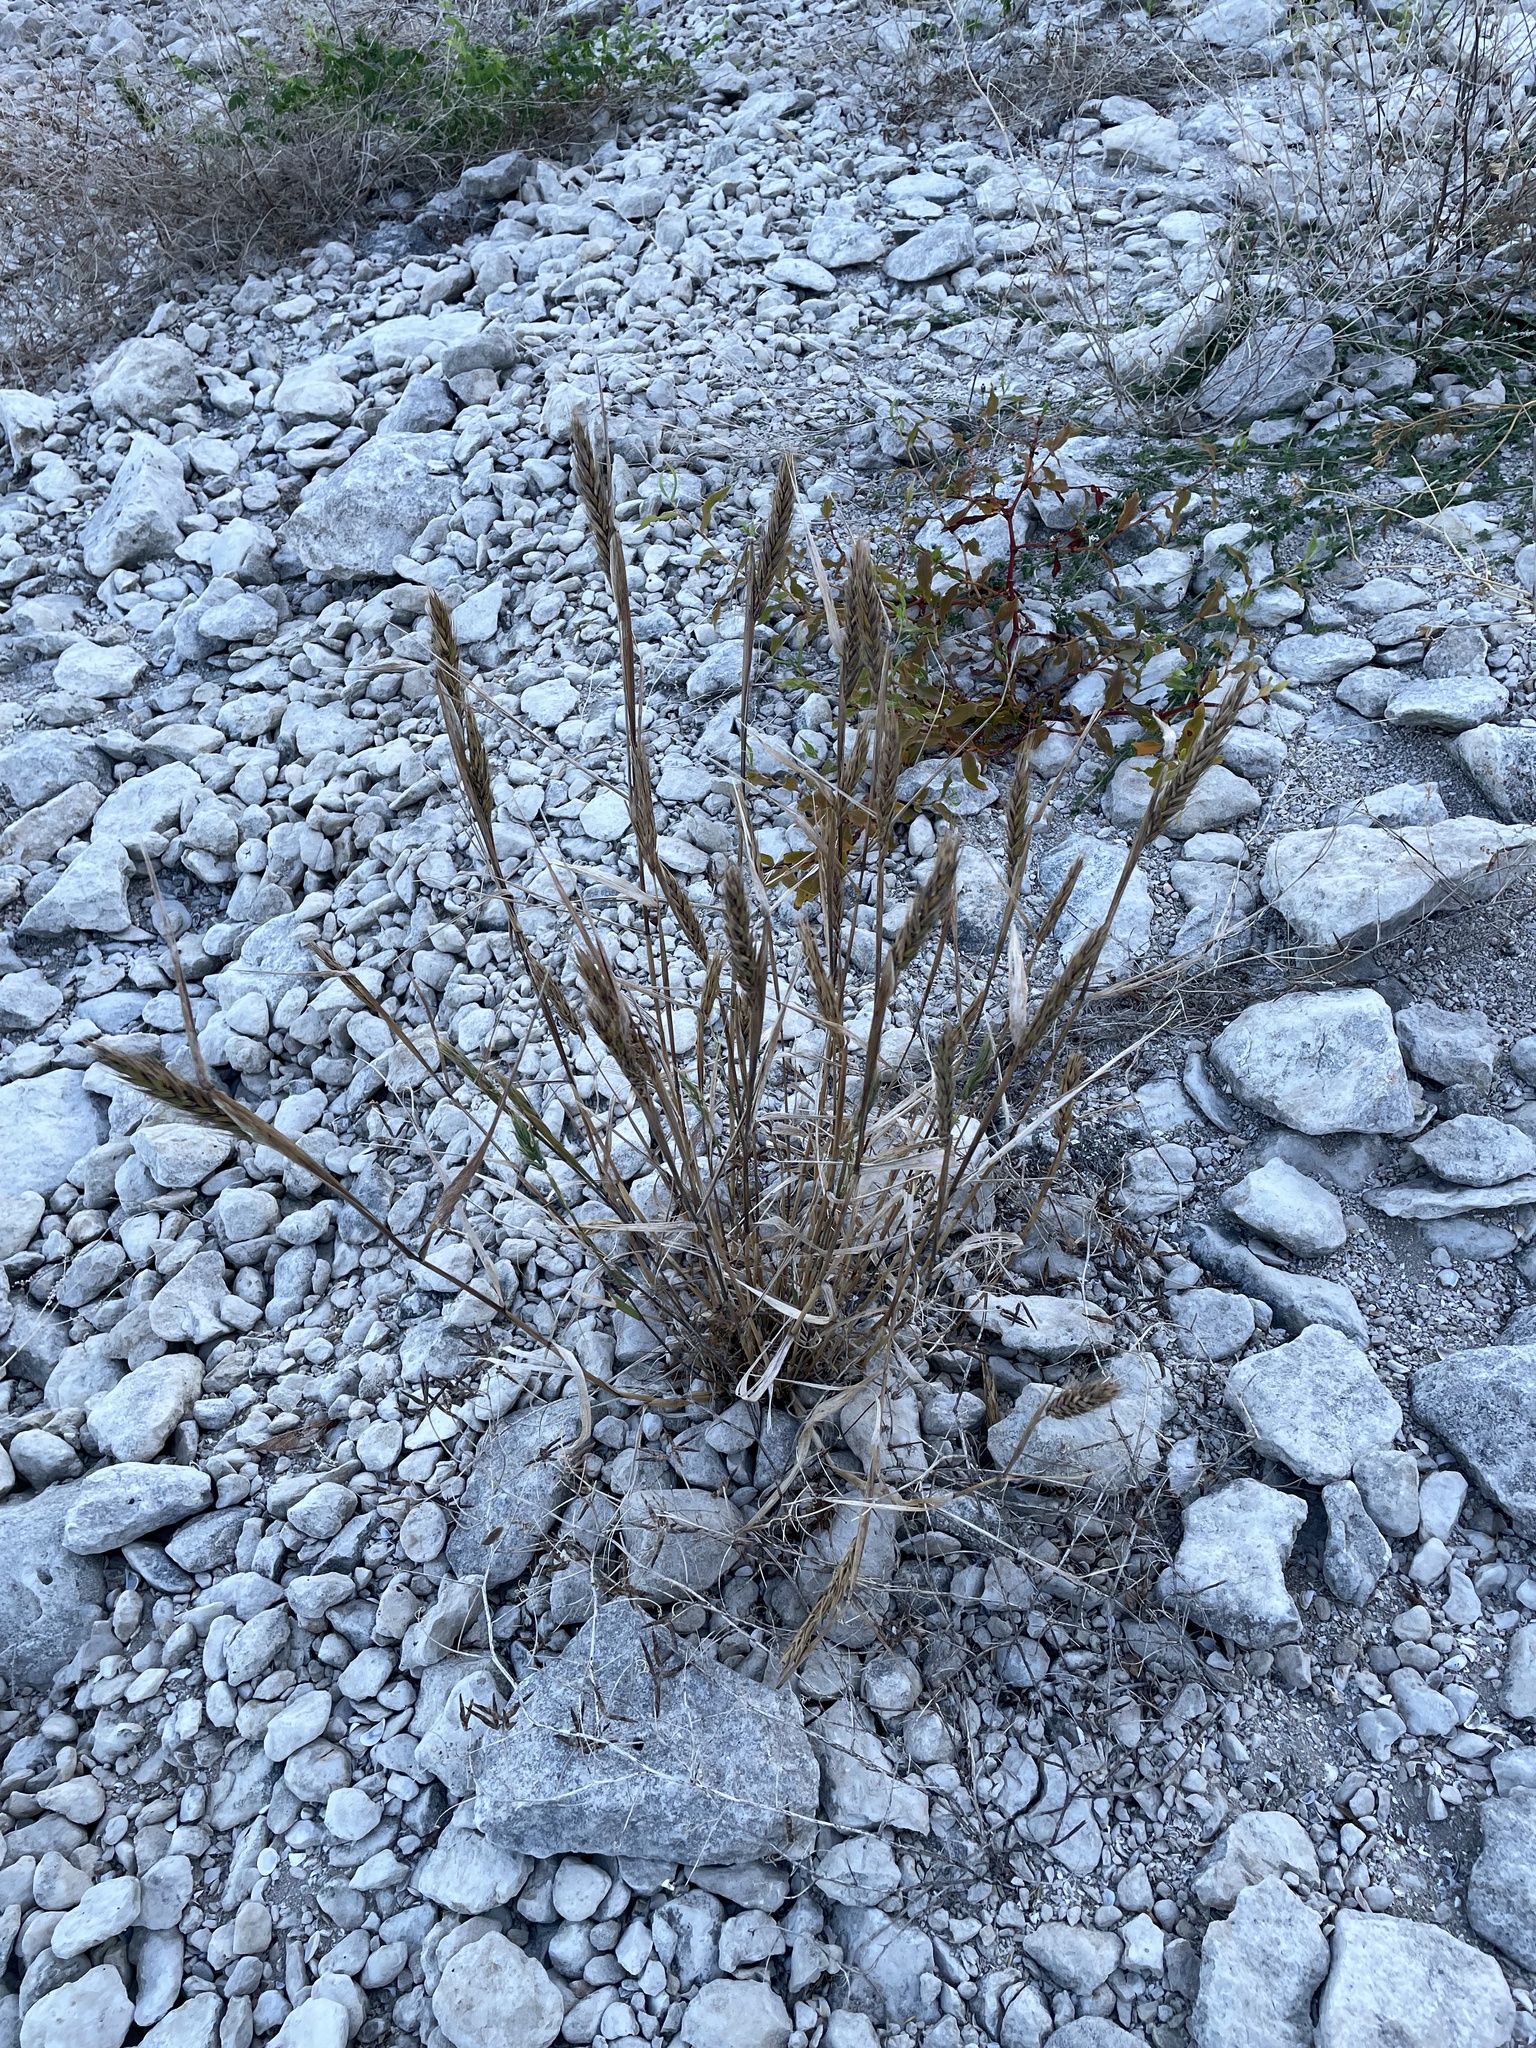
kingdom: Plantae
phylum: Tracheophyta
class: Liliopsida
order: Poales
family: Poaceae
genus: Elymus
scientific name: Elymus virginicus
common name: Common eastern wildrye
